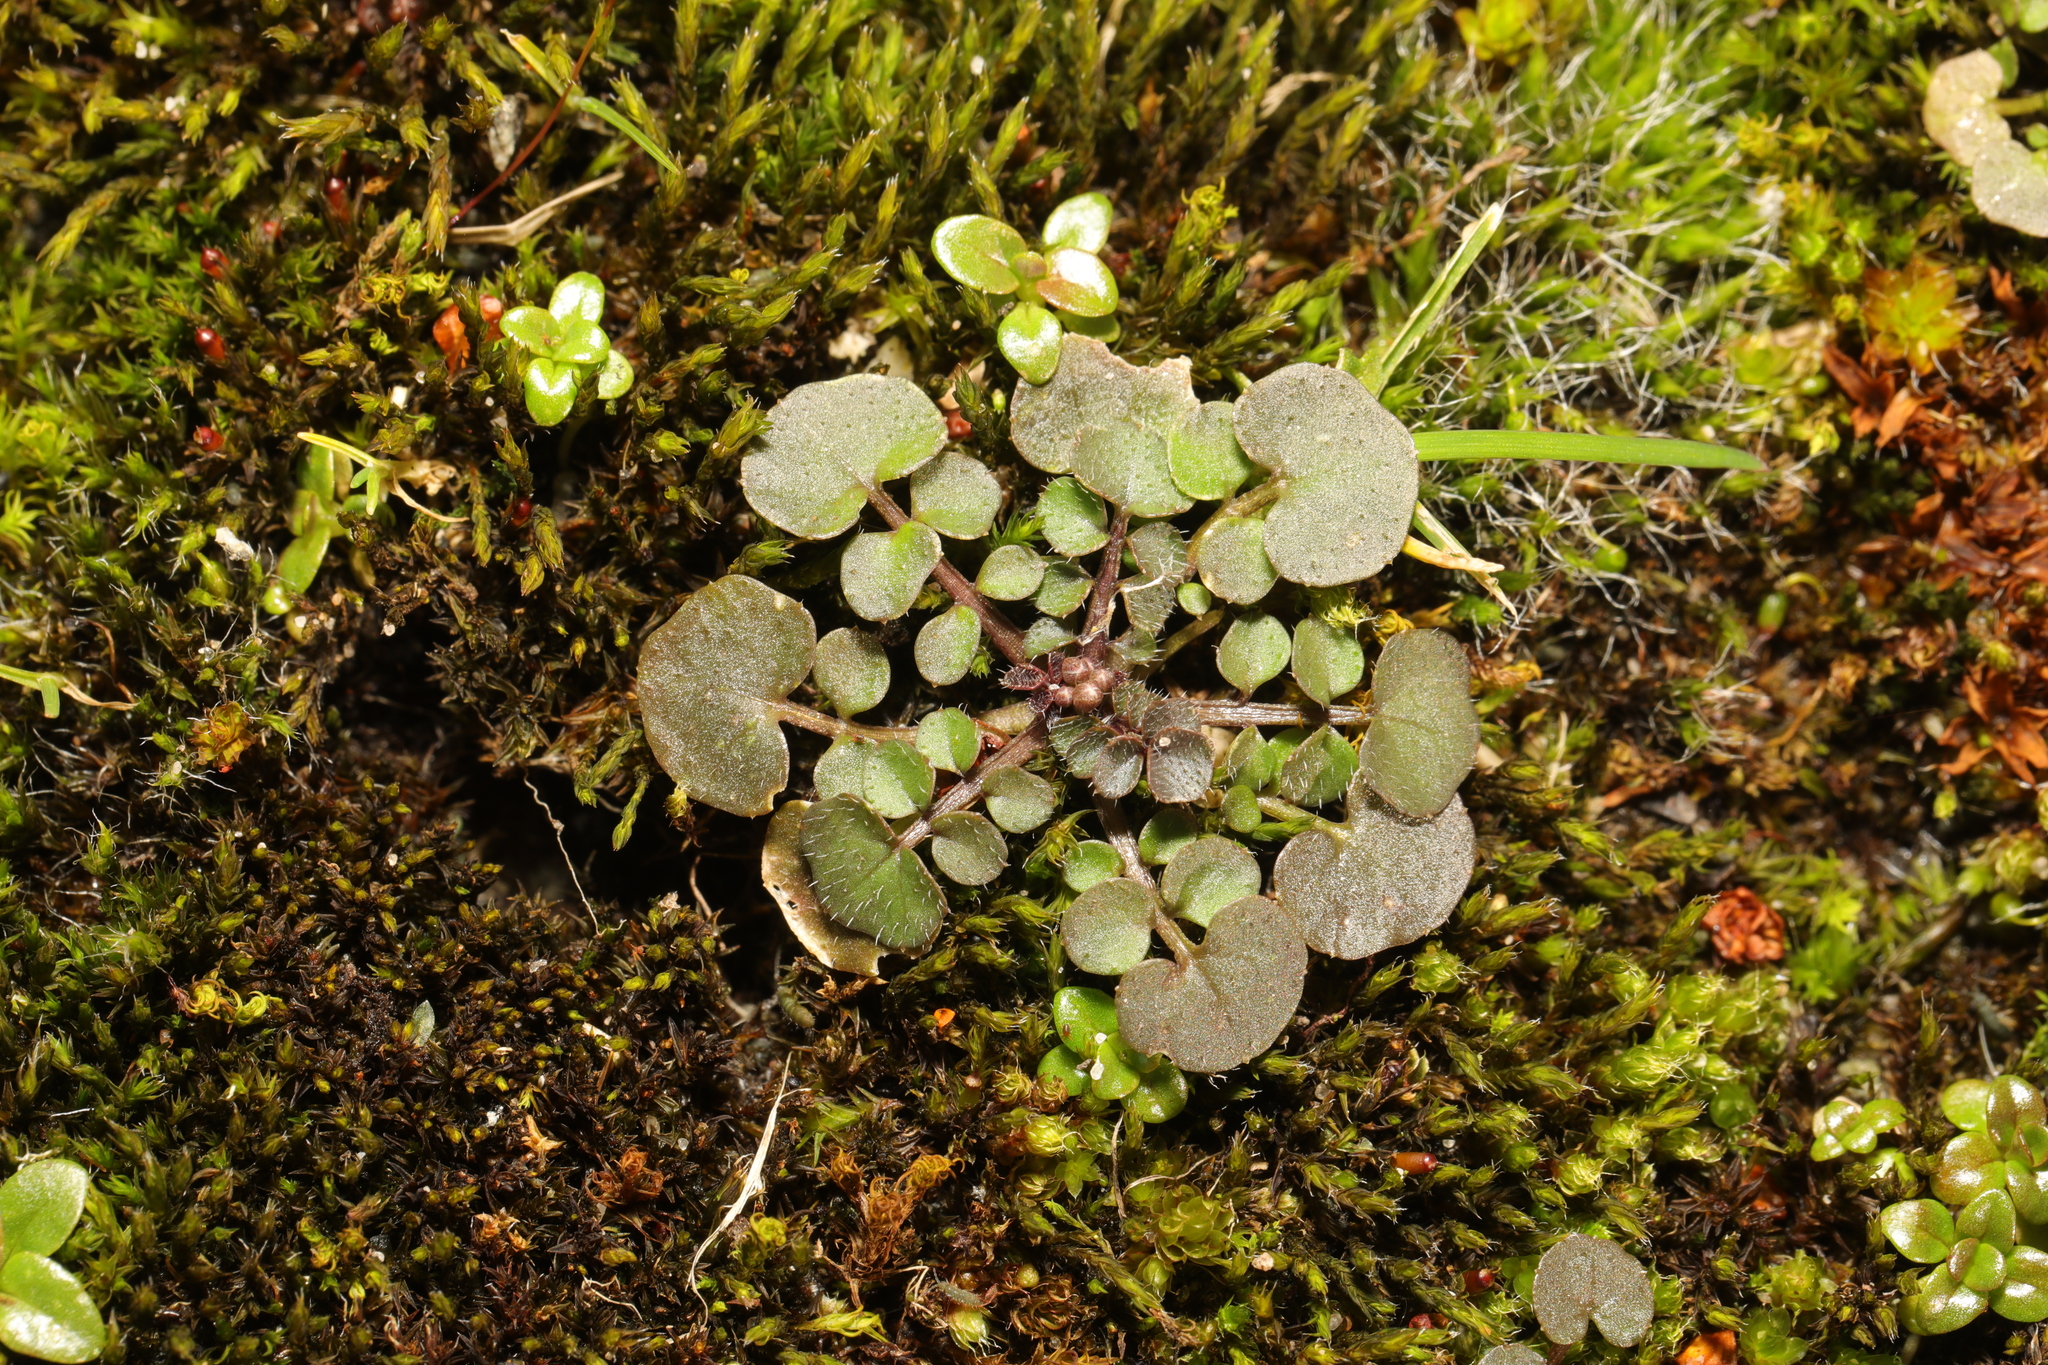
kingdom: Plantae
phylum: Tracheophyta
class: Magnoliopsida
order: Brassicales
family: Brassicaceae
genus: Cardamine
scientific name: Cardamine hirsuta
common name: Hairy bittercress
